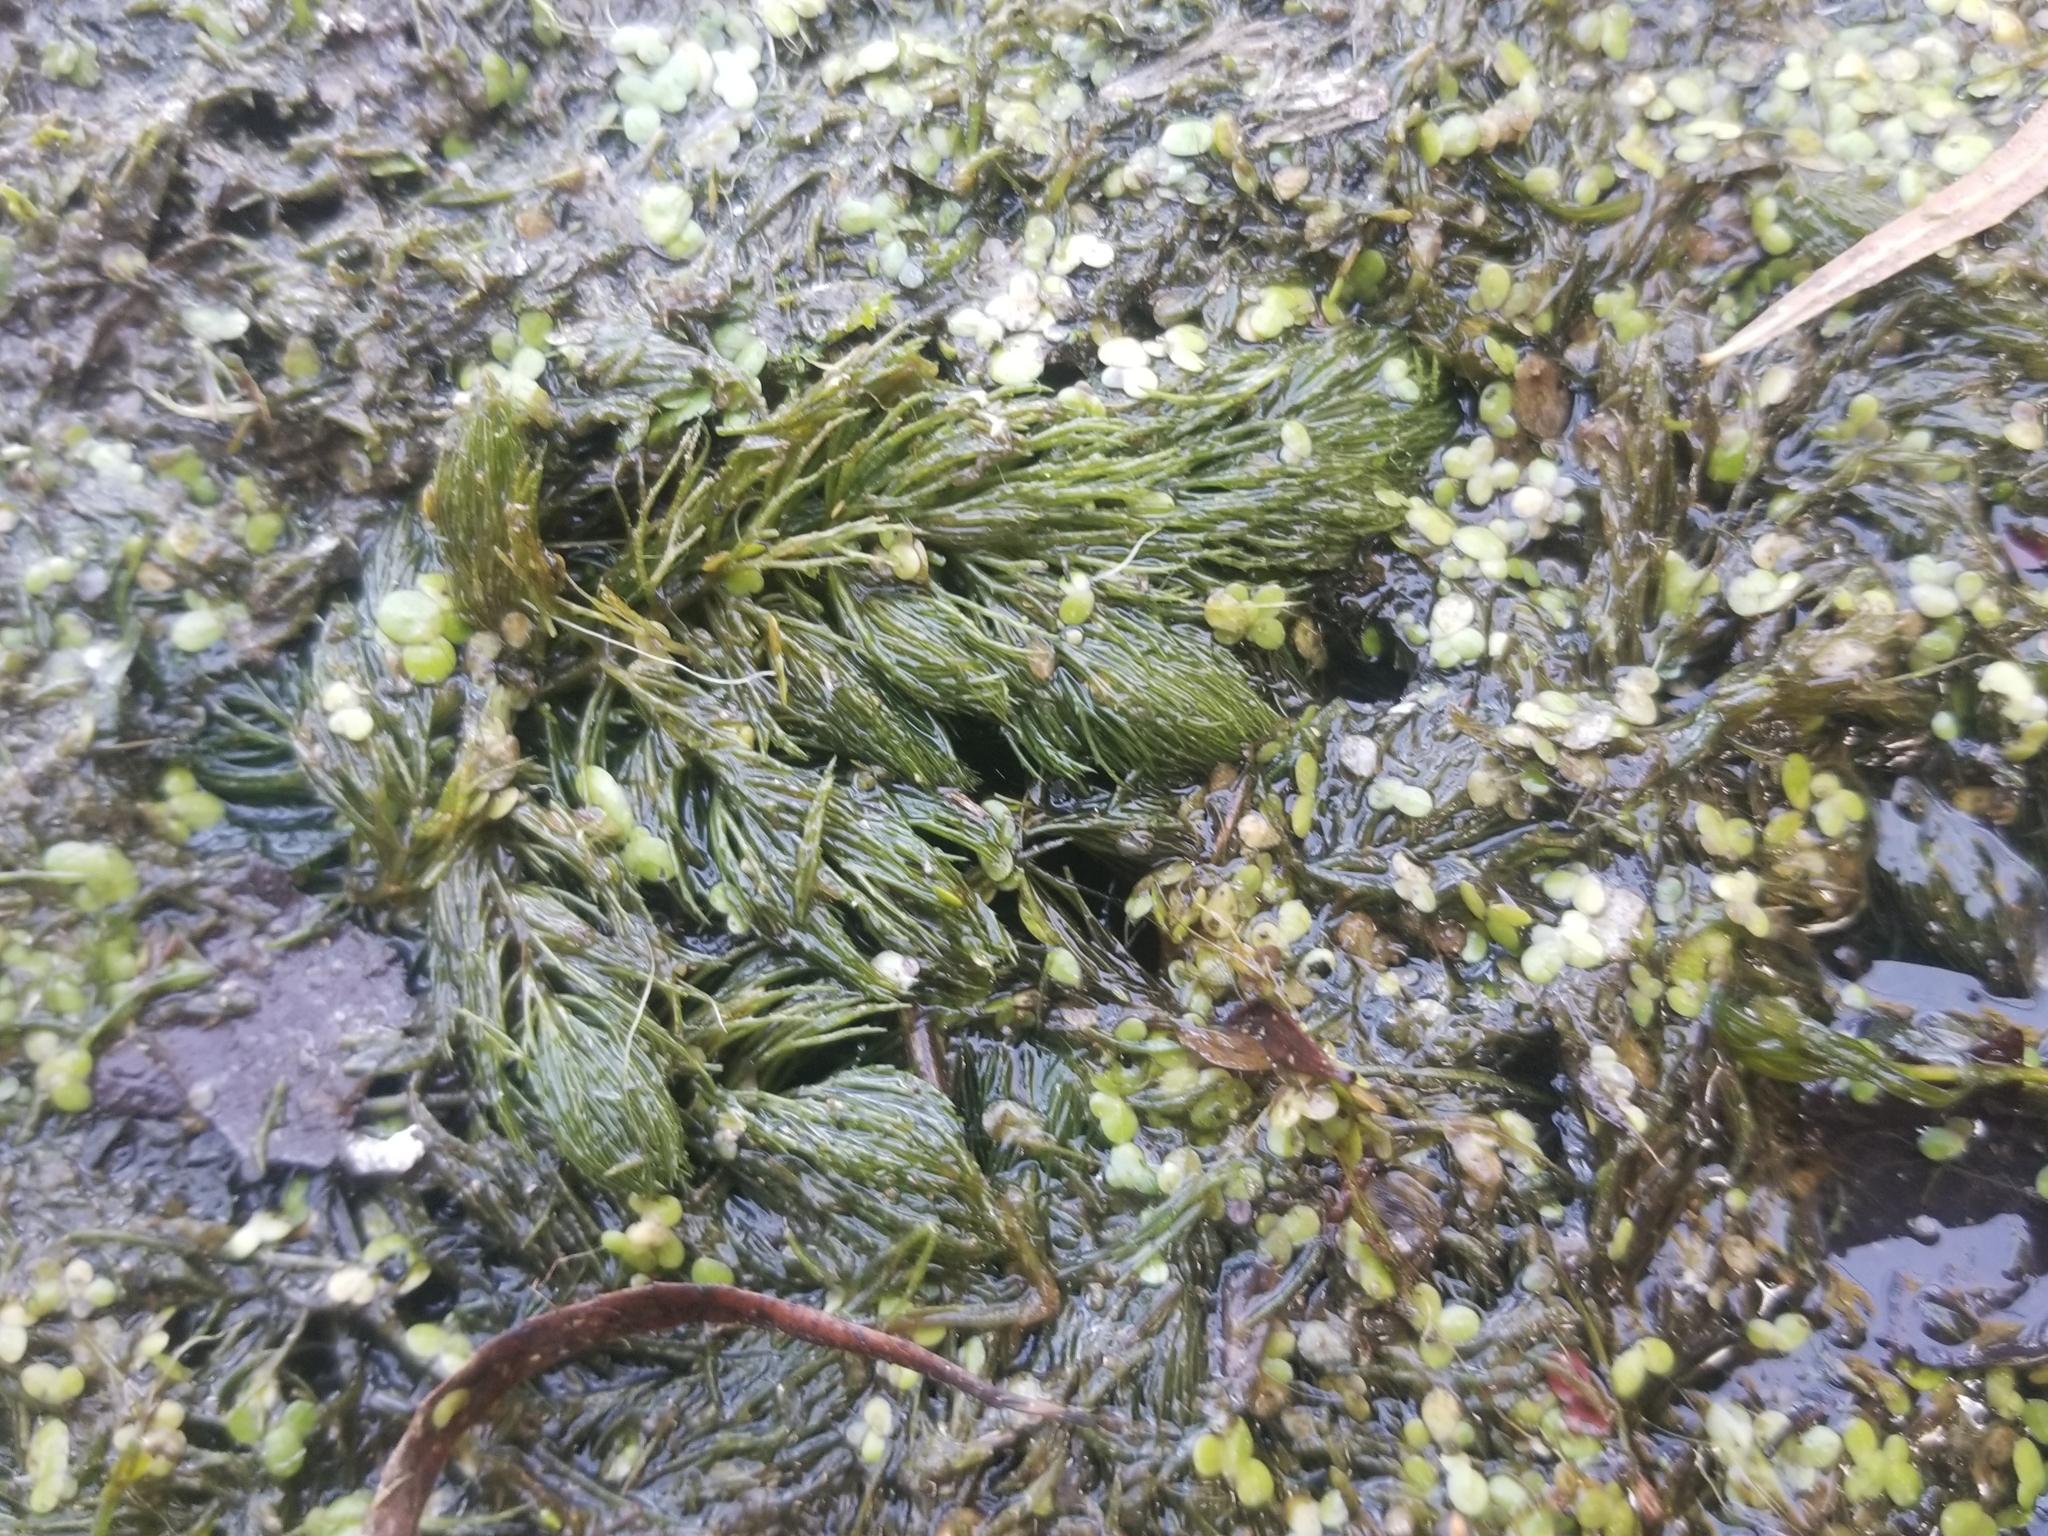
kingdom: Plantae
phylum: Tracheophyta
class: Magnoliopsida
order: Ceratophyllales
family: Ceratophyllaceae
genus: Ceratophyllum
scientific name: Ceratophyllum demersum
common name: Rigid hornwort
